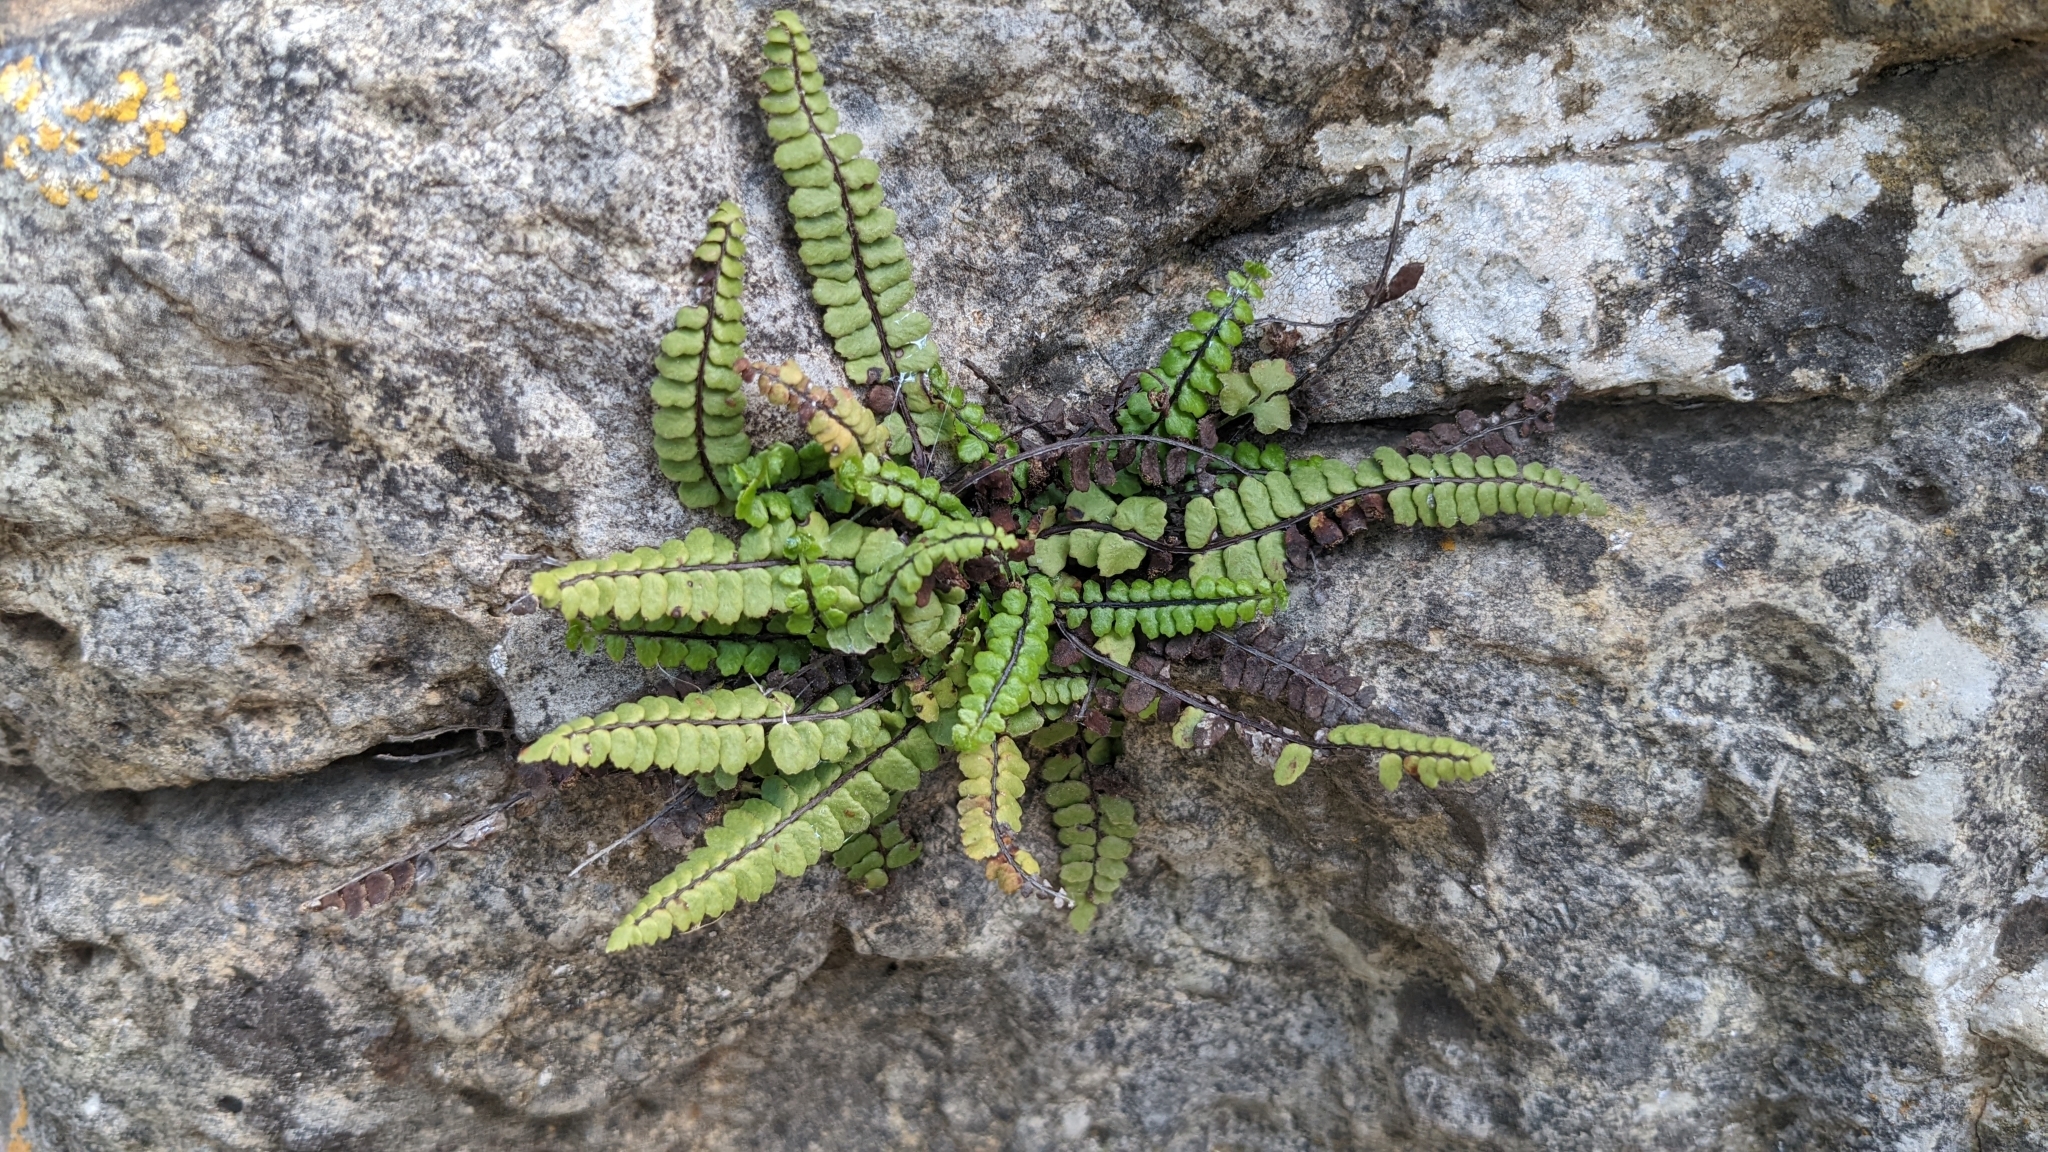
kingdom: Plantae
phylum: Tracheophyta
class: Polypodiopsida
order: Polypodiales
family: Aspleniaceae
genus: Asplenium
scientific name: Asplenium trichomanes
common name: Maidenhair spleenwort
